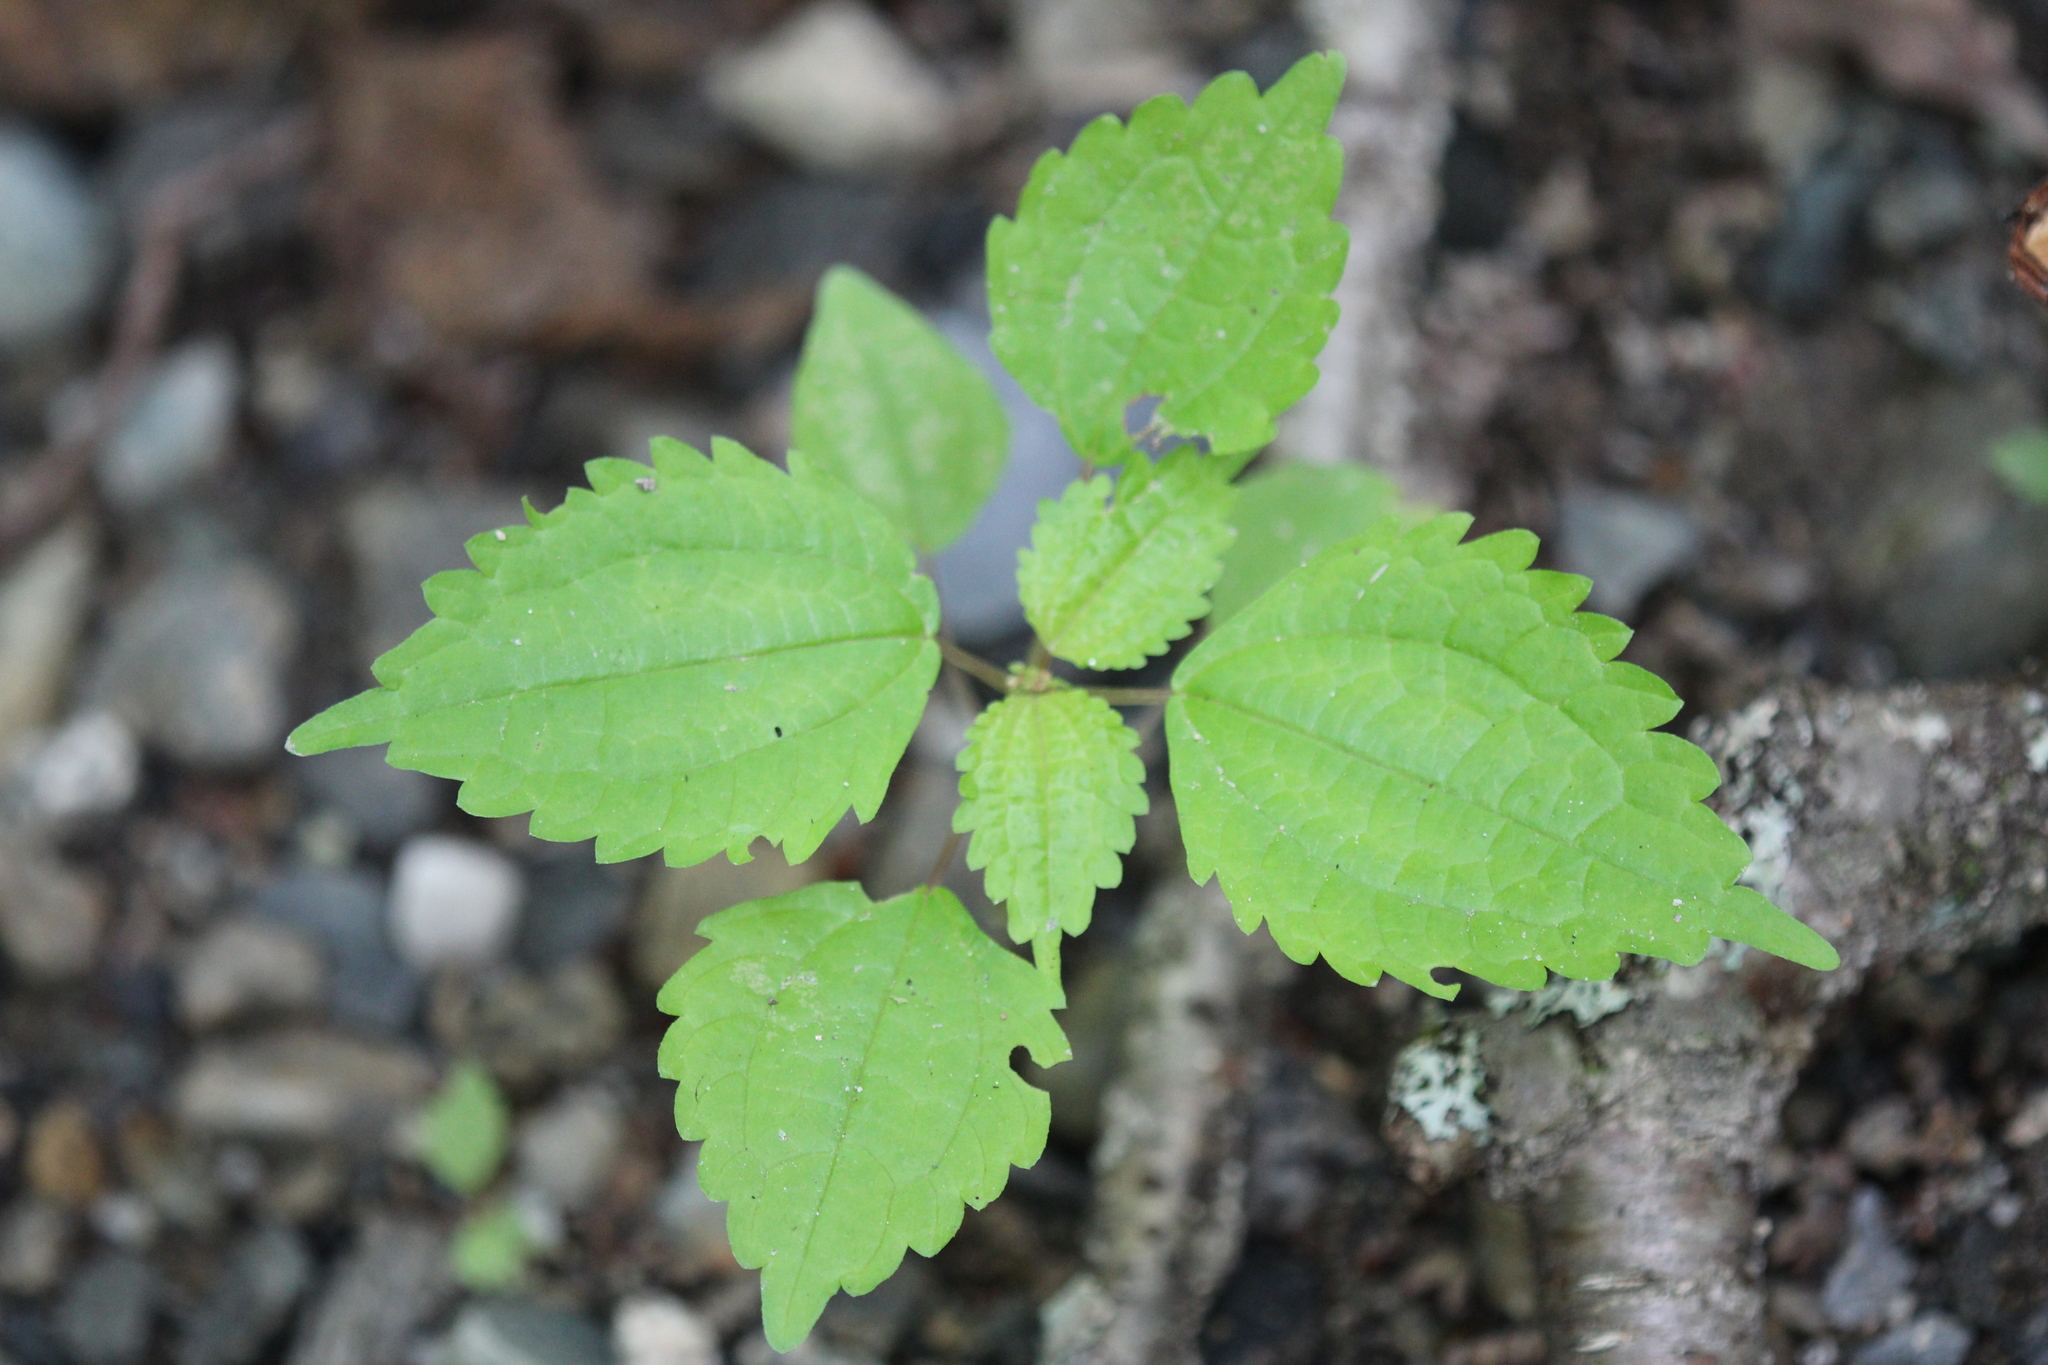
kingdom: Plantae
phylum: Tracheophyta
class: Magnoliopsida
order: Rosales
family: Urticaceae
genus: Pilea
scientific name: Pilea pumila
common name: Clearweed
